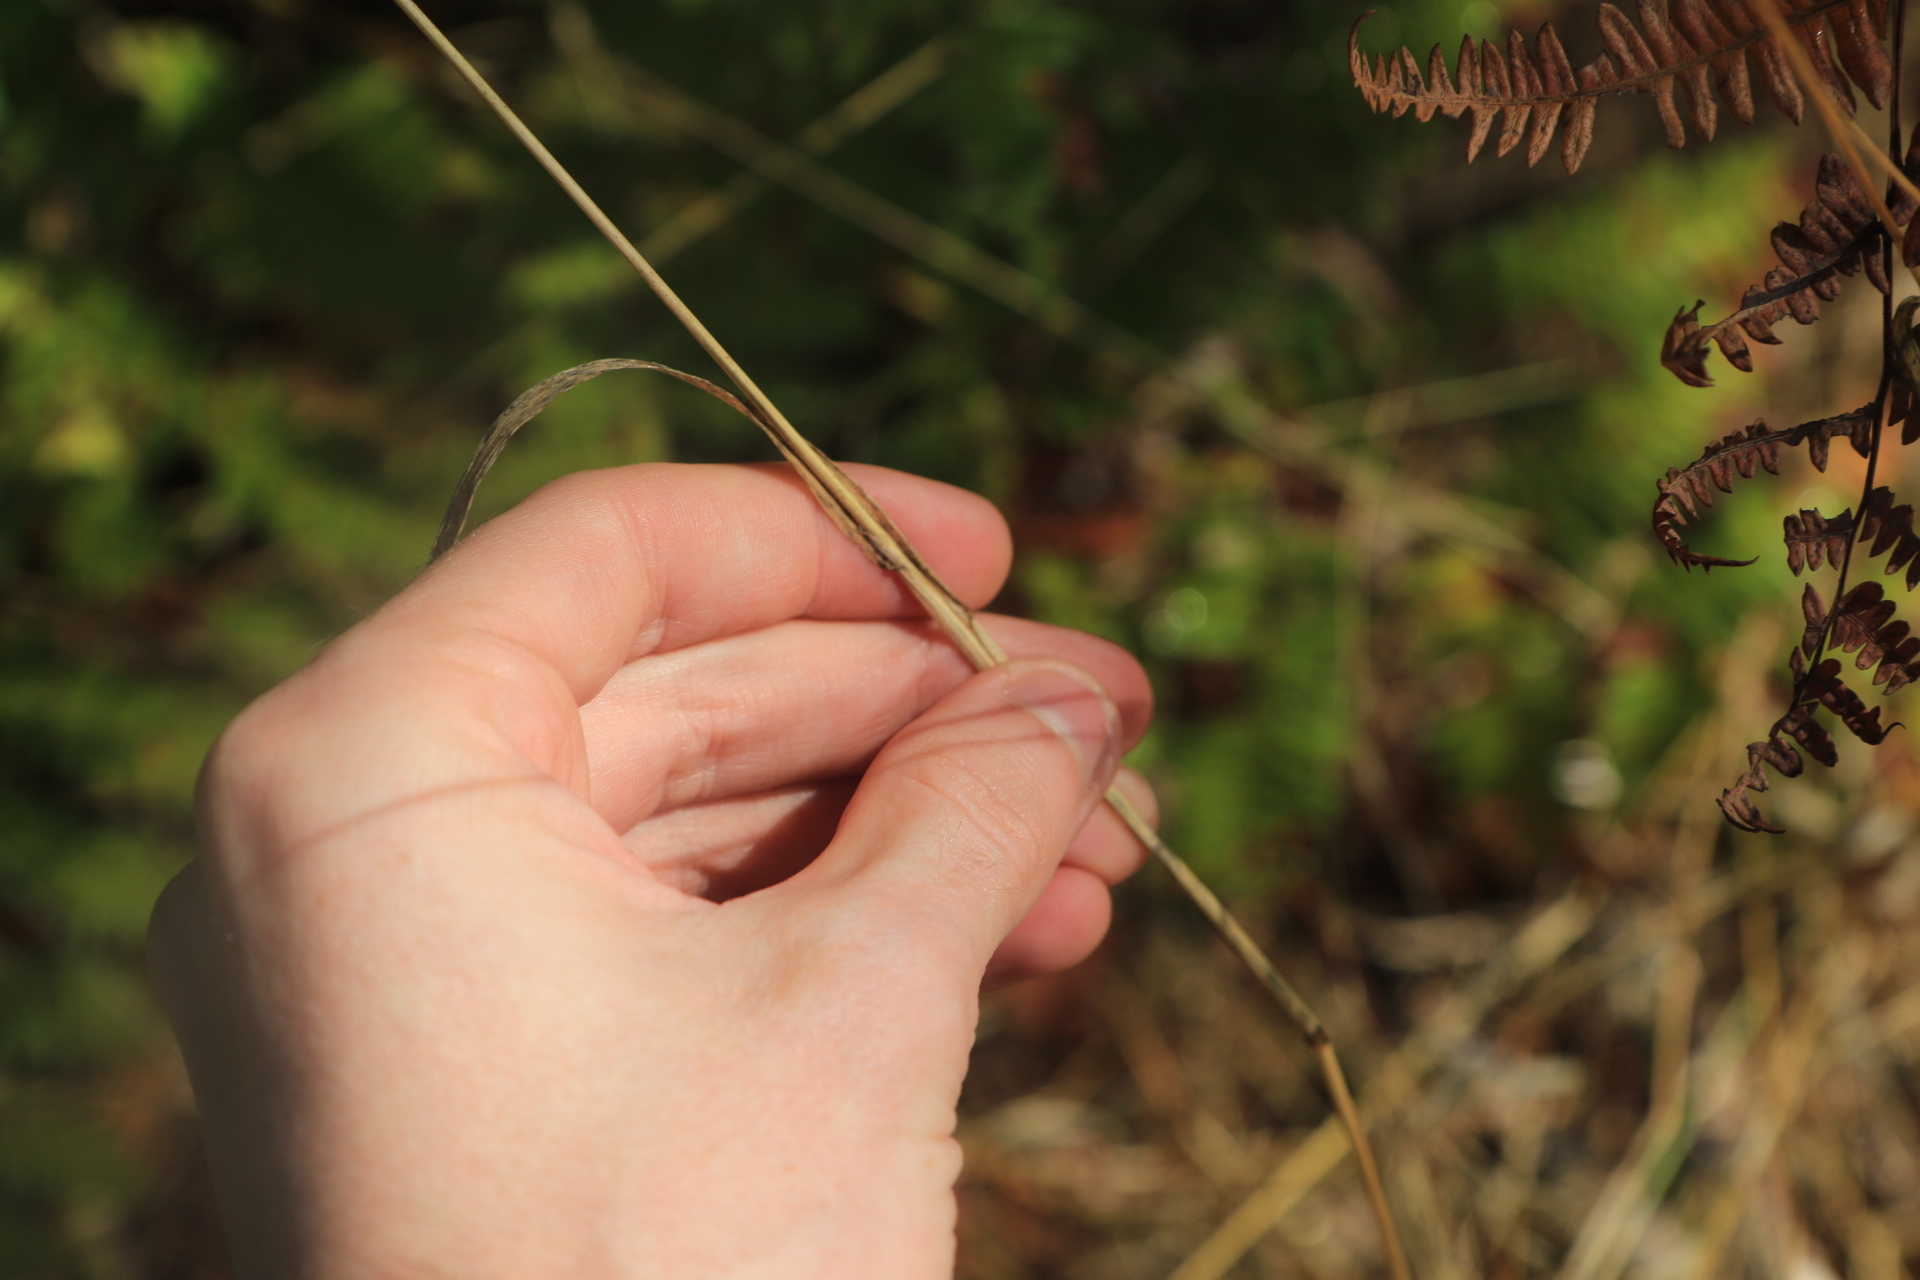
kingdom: Plantae
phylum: Tracheophyta
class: Liliopsida
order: Poales
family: Poaceae
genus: Cynosurus
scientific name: Cynosurus echinatus
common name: Rough dog's-tail
